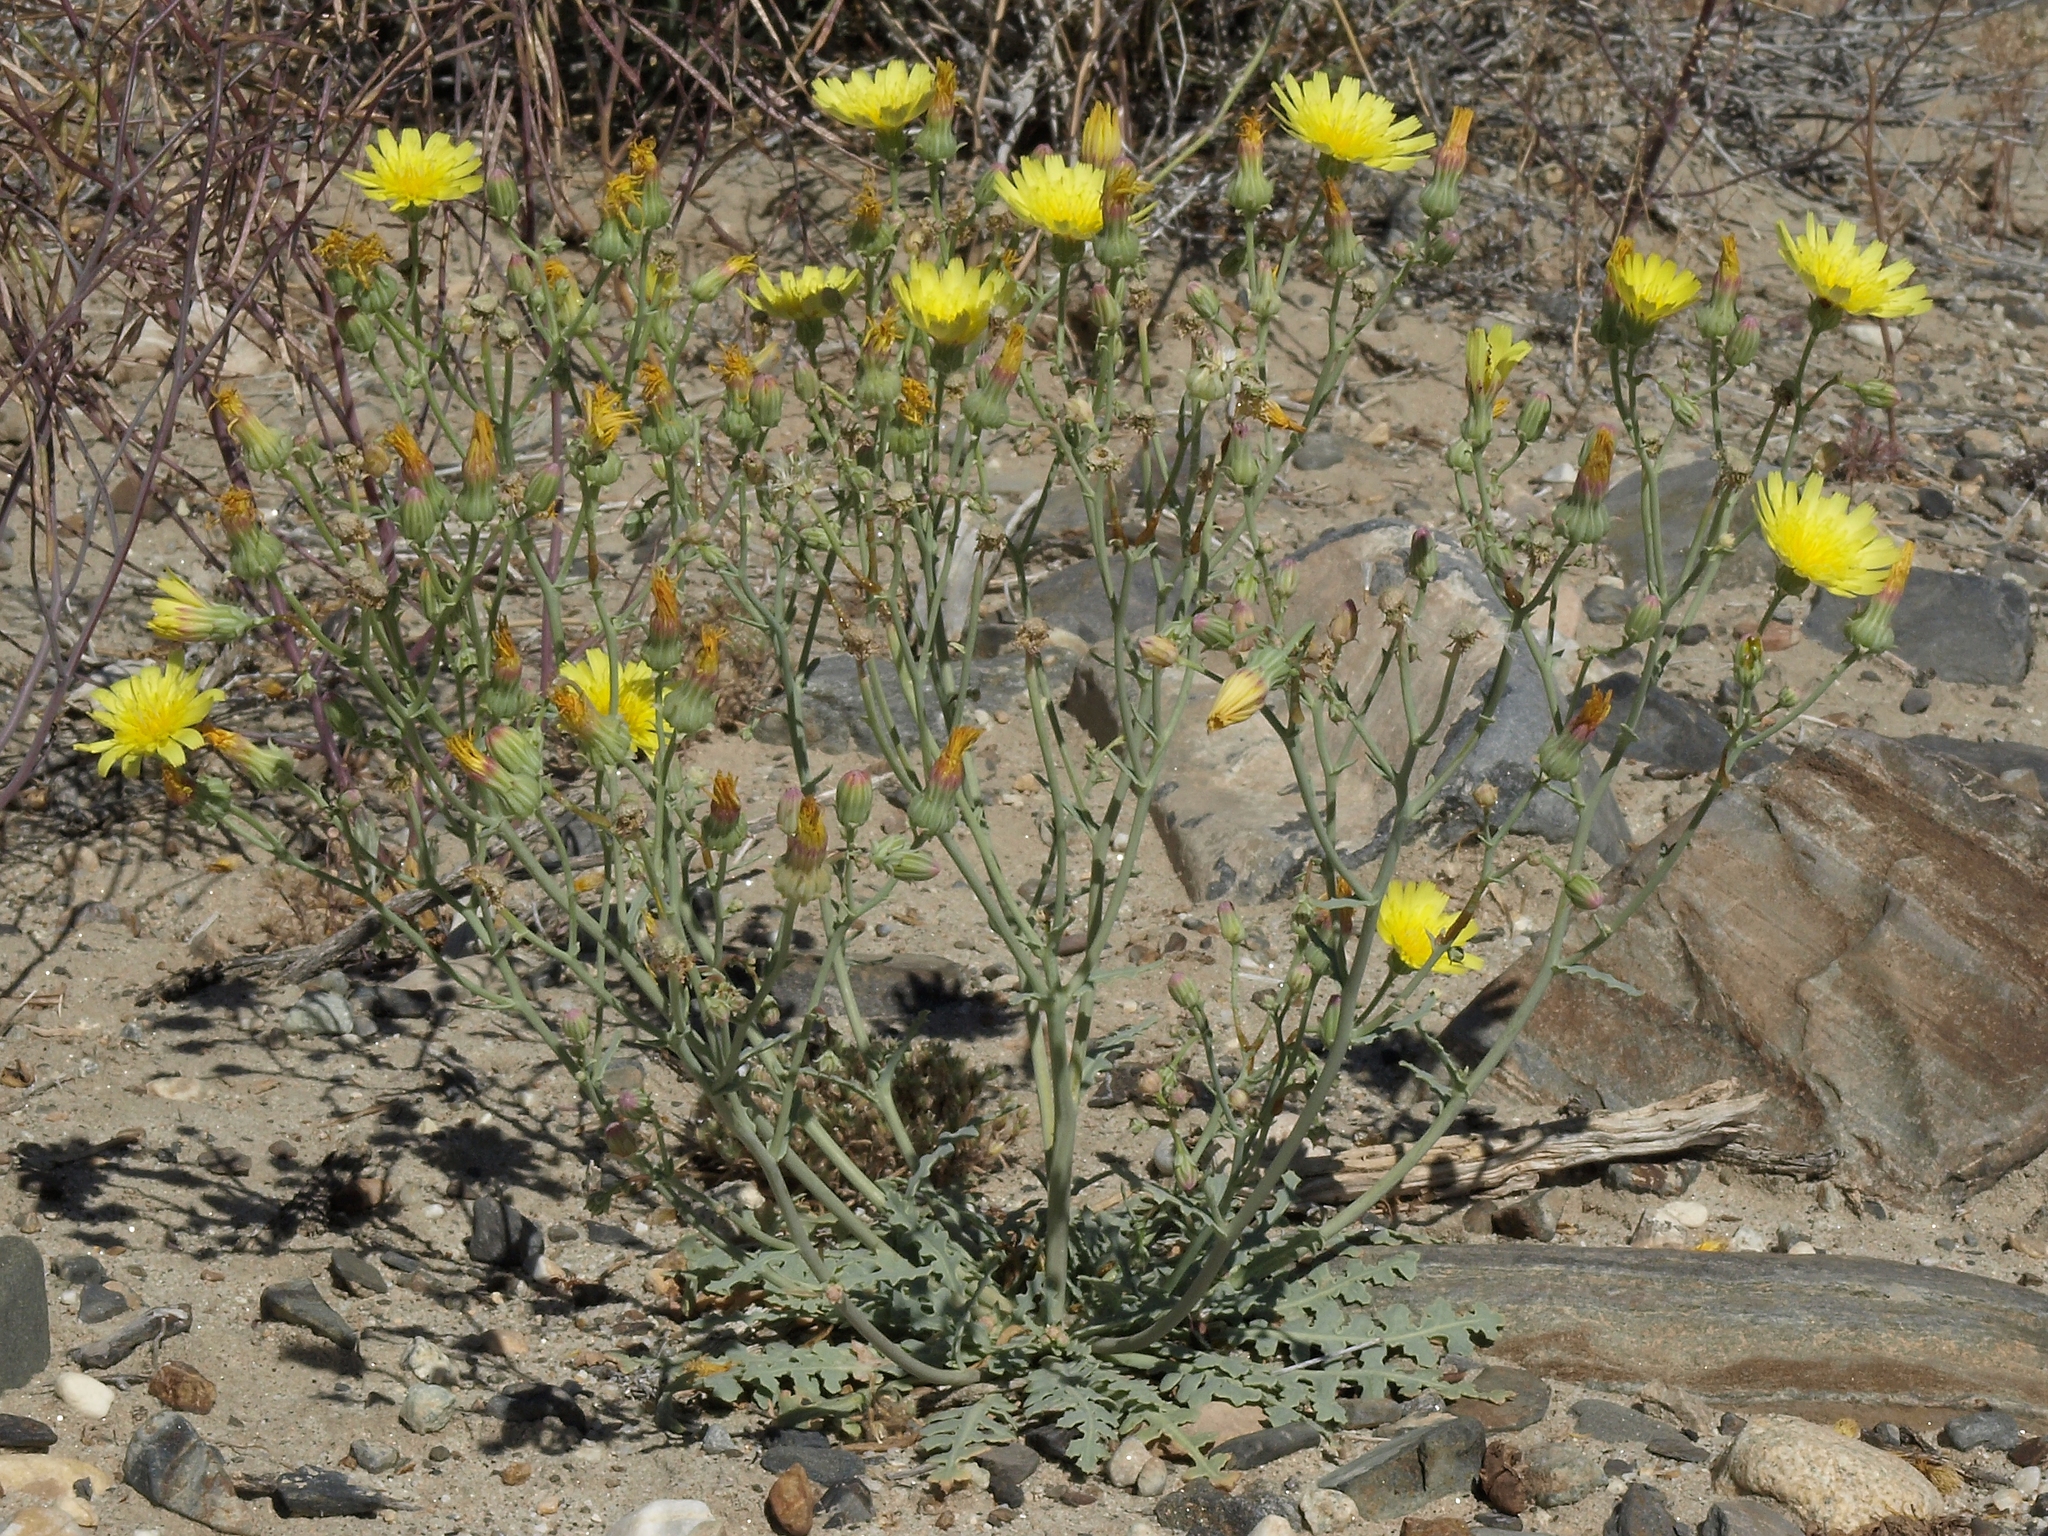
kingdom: Plantae
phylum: Tracheophyta
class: Magnoliopsida
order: Asterales
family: Asteraceae
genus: Malacothrix
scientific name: Malacothrix sonchoides
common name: Sow-thistle desert-dandelion
